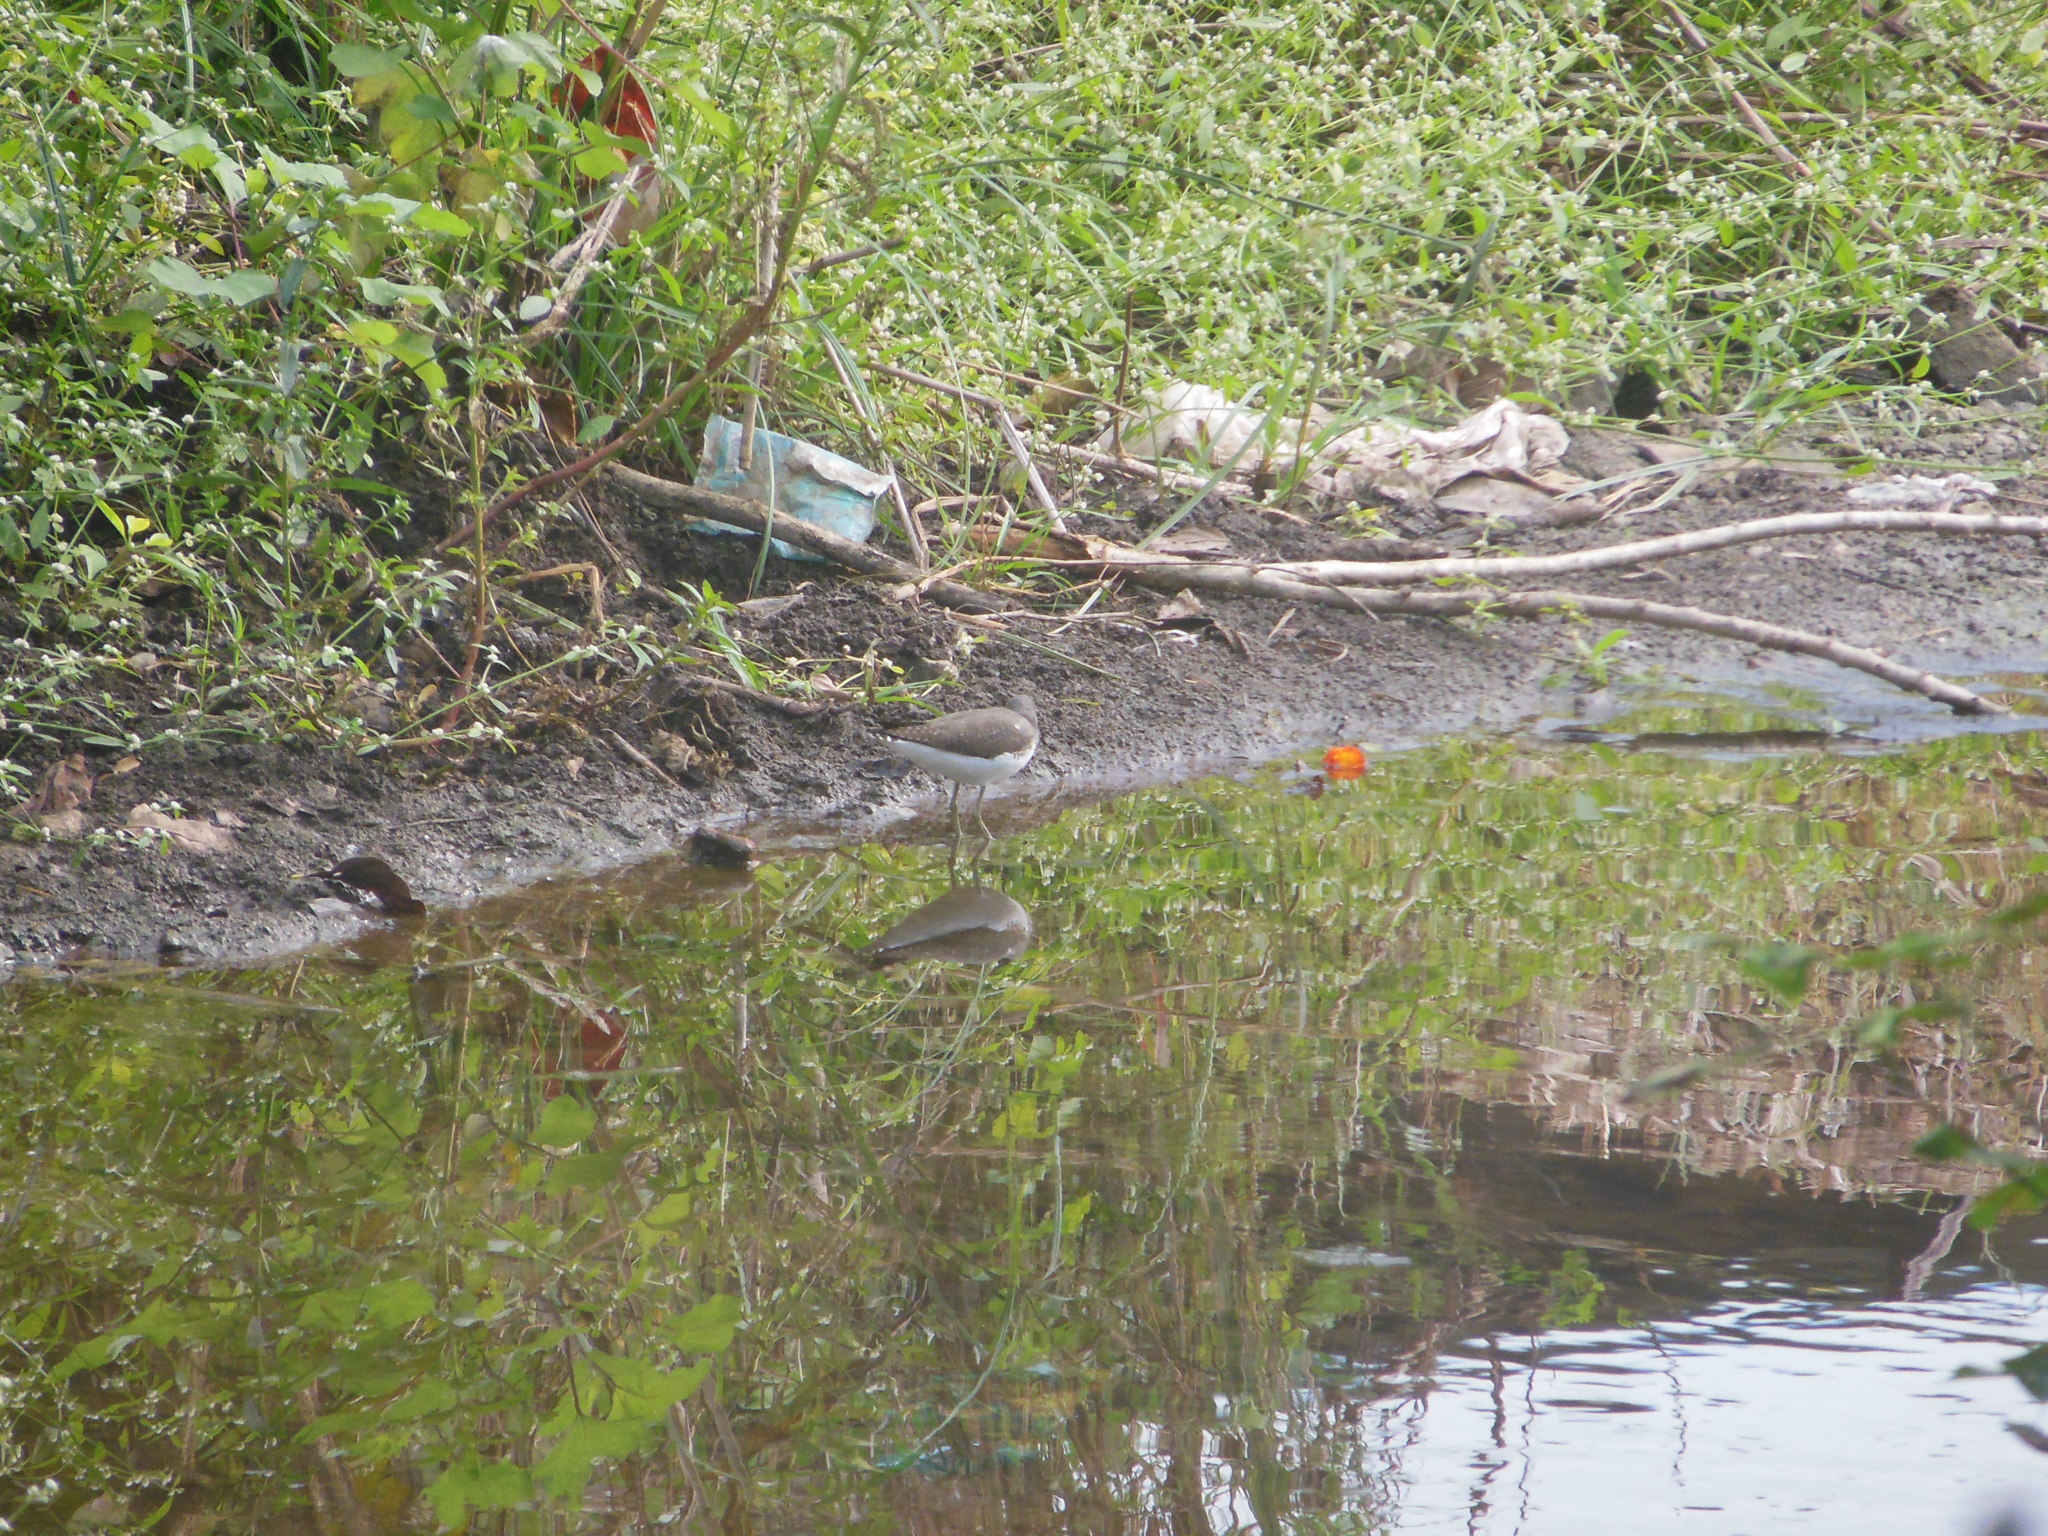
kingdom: Animalia
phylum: Chordata
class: Aves
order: Charadriiformes
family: Scolopacidae
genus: Tringa
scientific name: Tringa ochropus
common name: Green sandpiper
